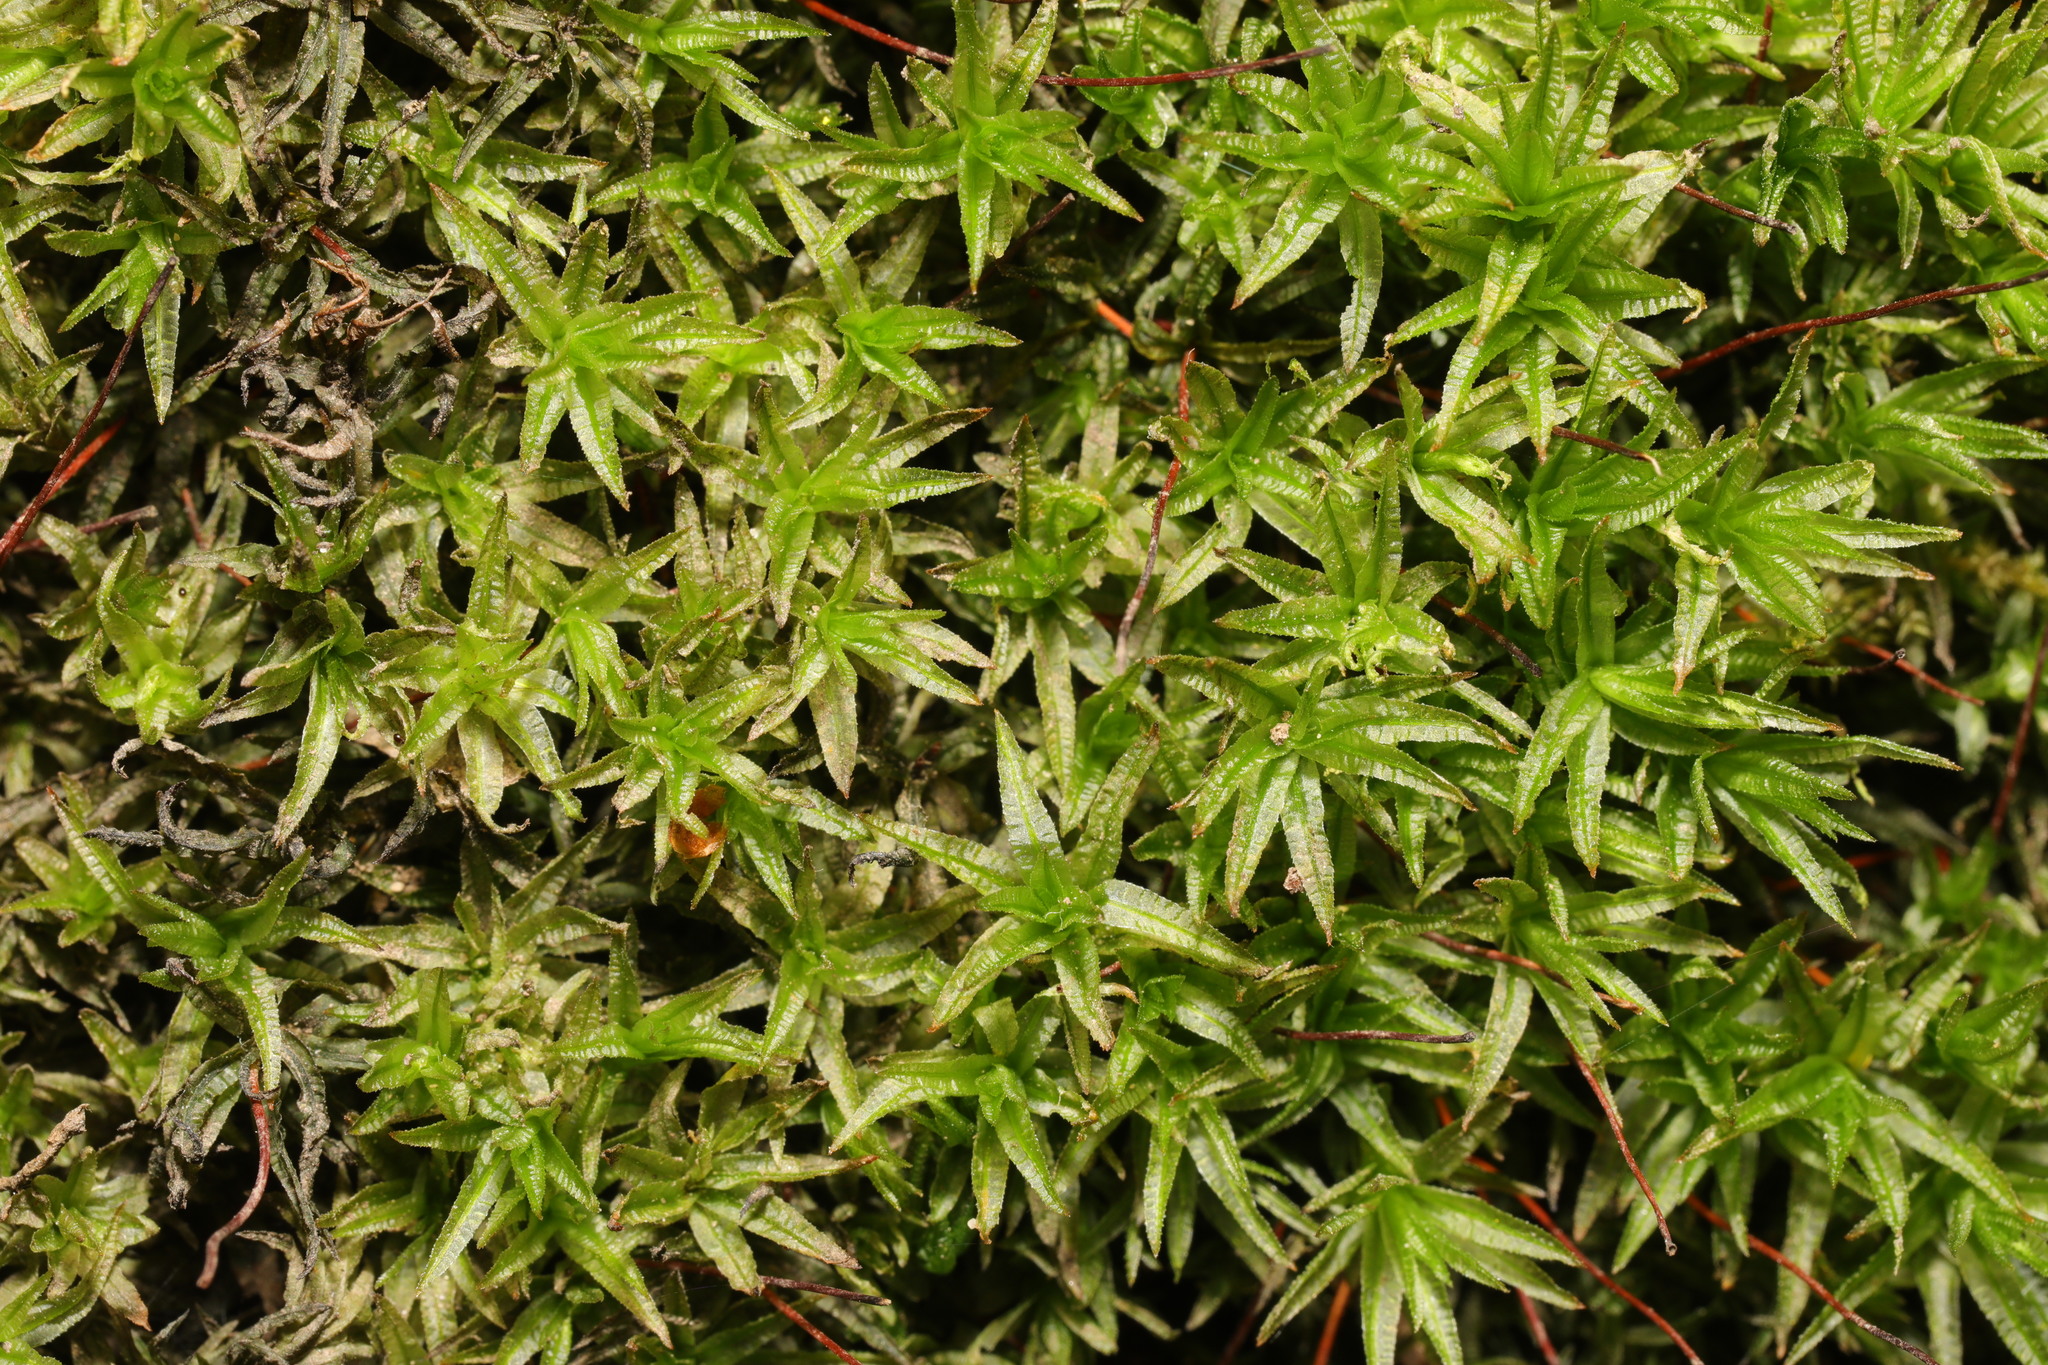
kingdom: Plantae
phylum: Bryophyta
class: Polytrichopsida
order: Polytrichales
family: Polytrichaceae
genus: Atrichum
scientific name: Atrichum undulatum
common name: Common smoothcap
